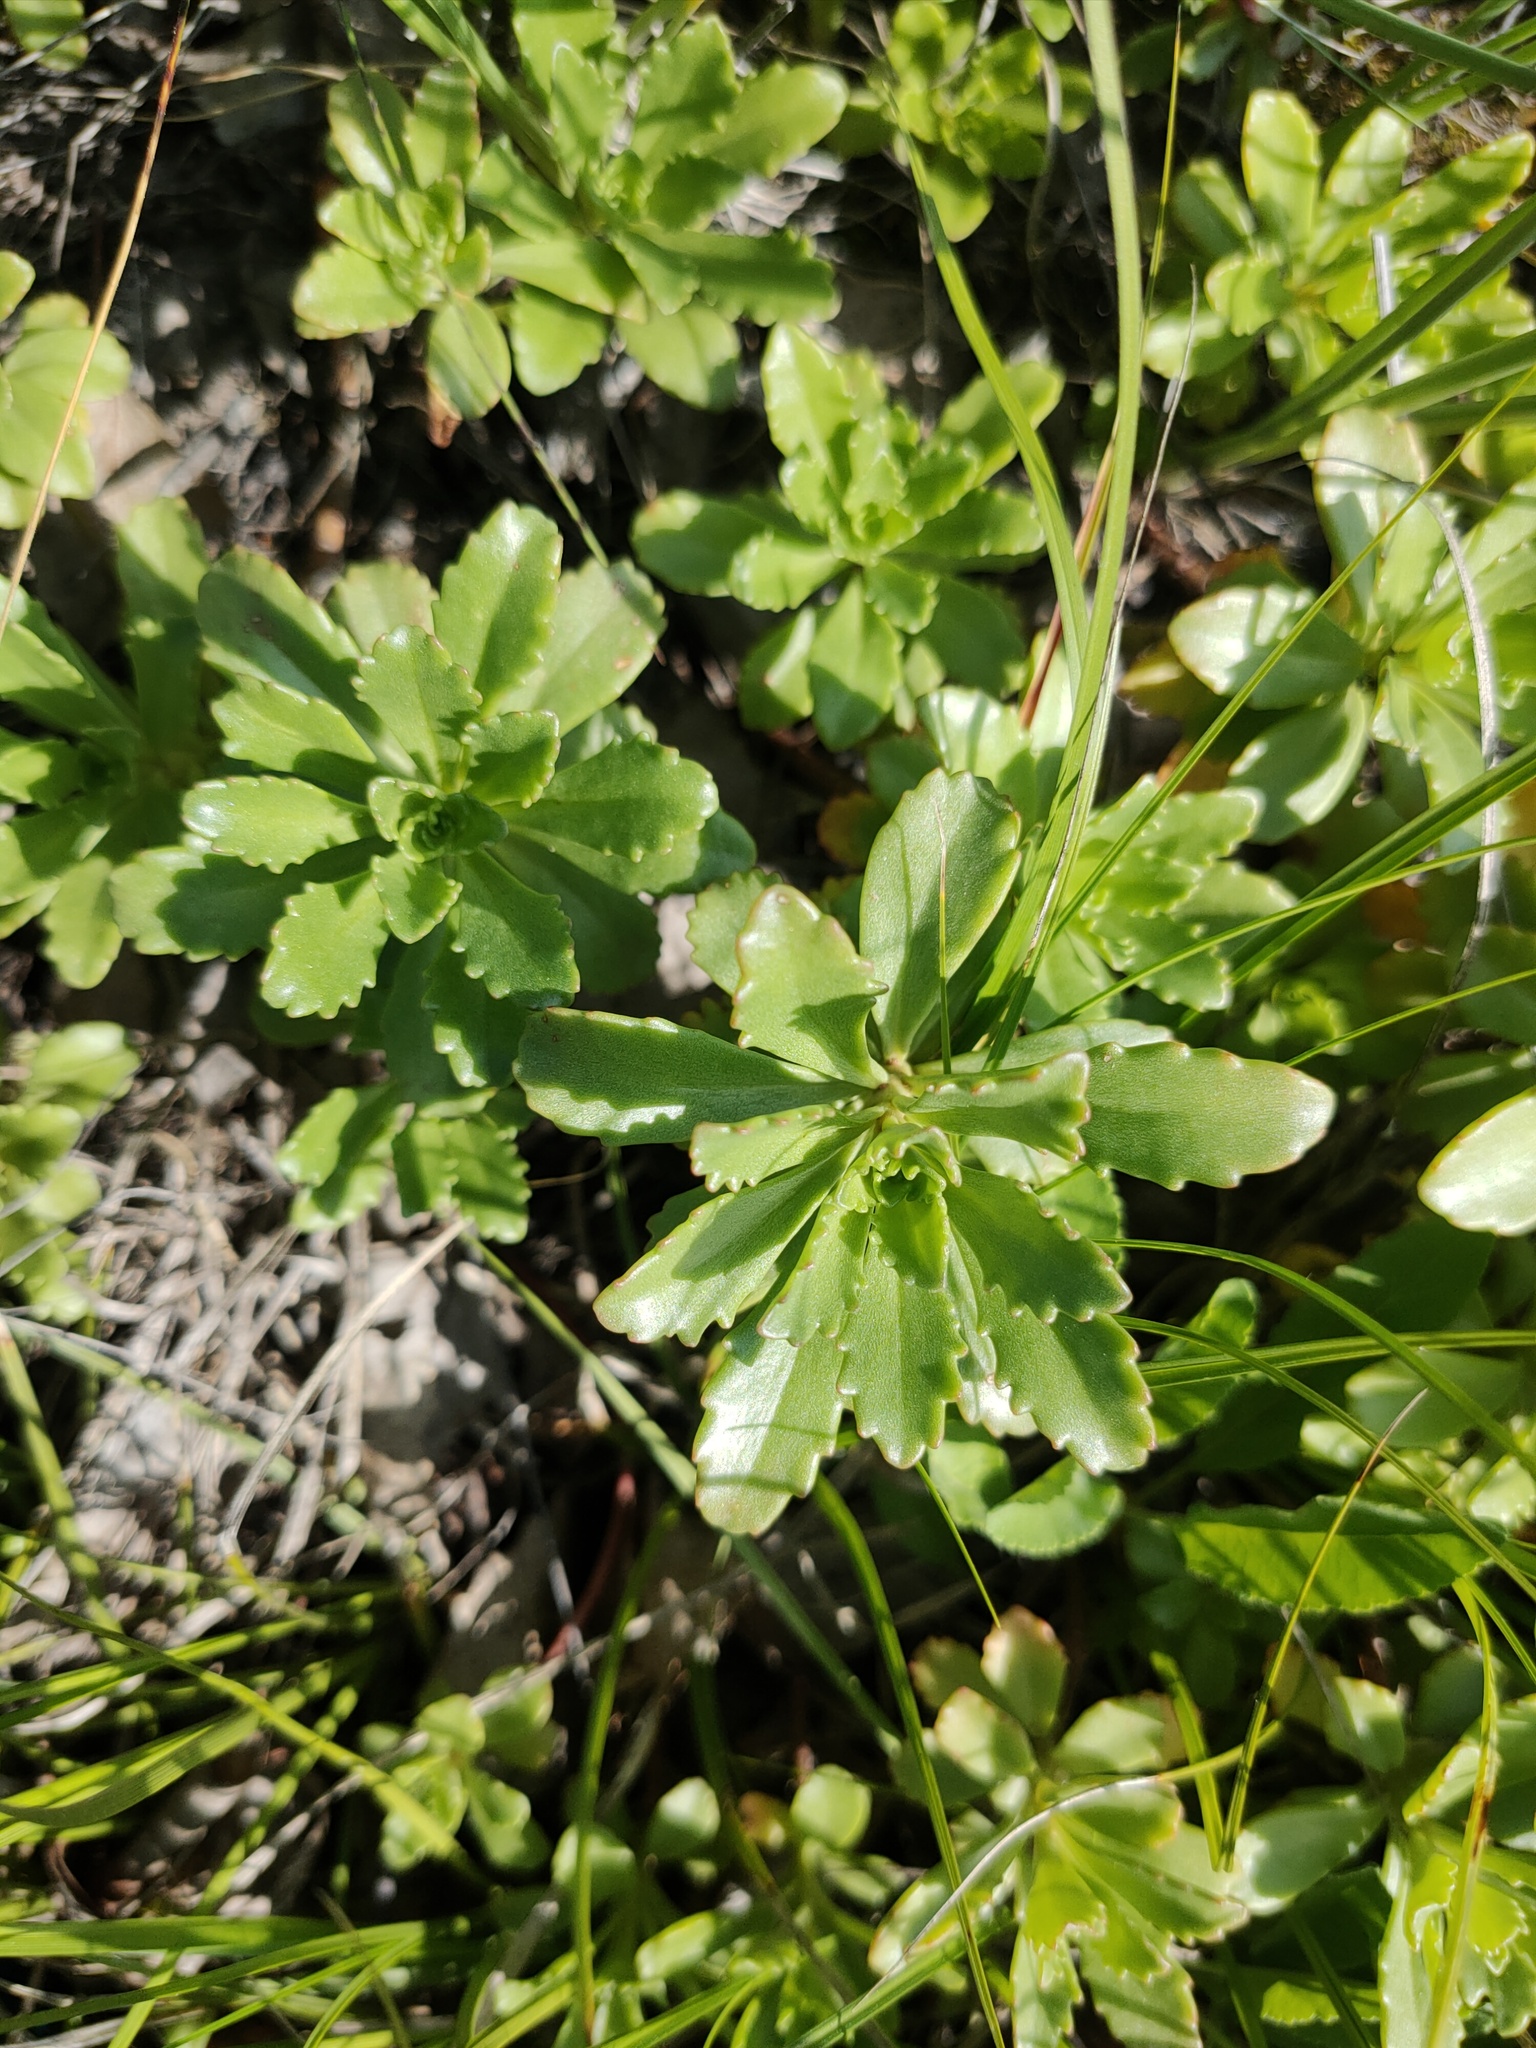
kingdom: Plantae
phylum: Tracheophyta
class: Magnoliopsida
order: Saxifragales
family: Crassulaceae
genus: Phedimus
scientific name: Phedimus hybridus
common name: Hybrid stonecrop
